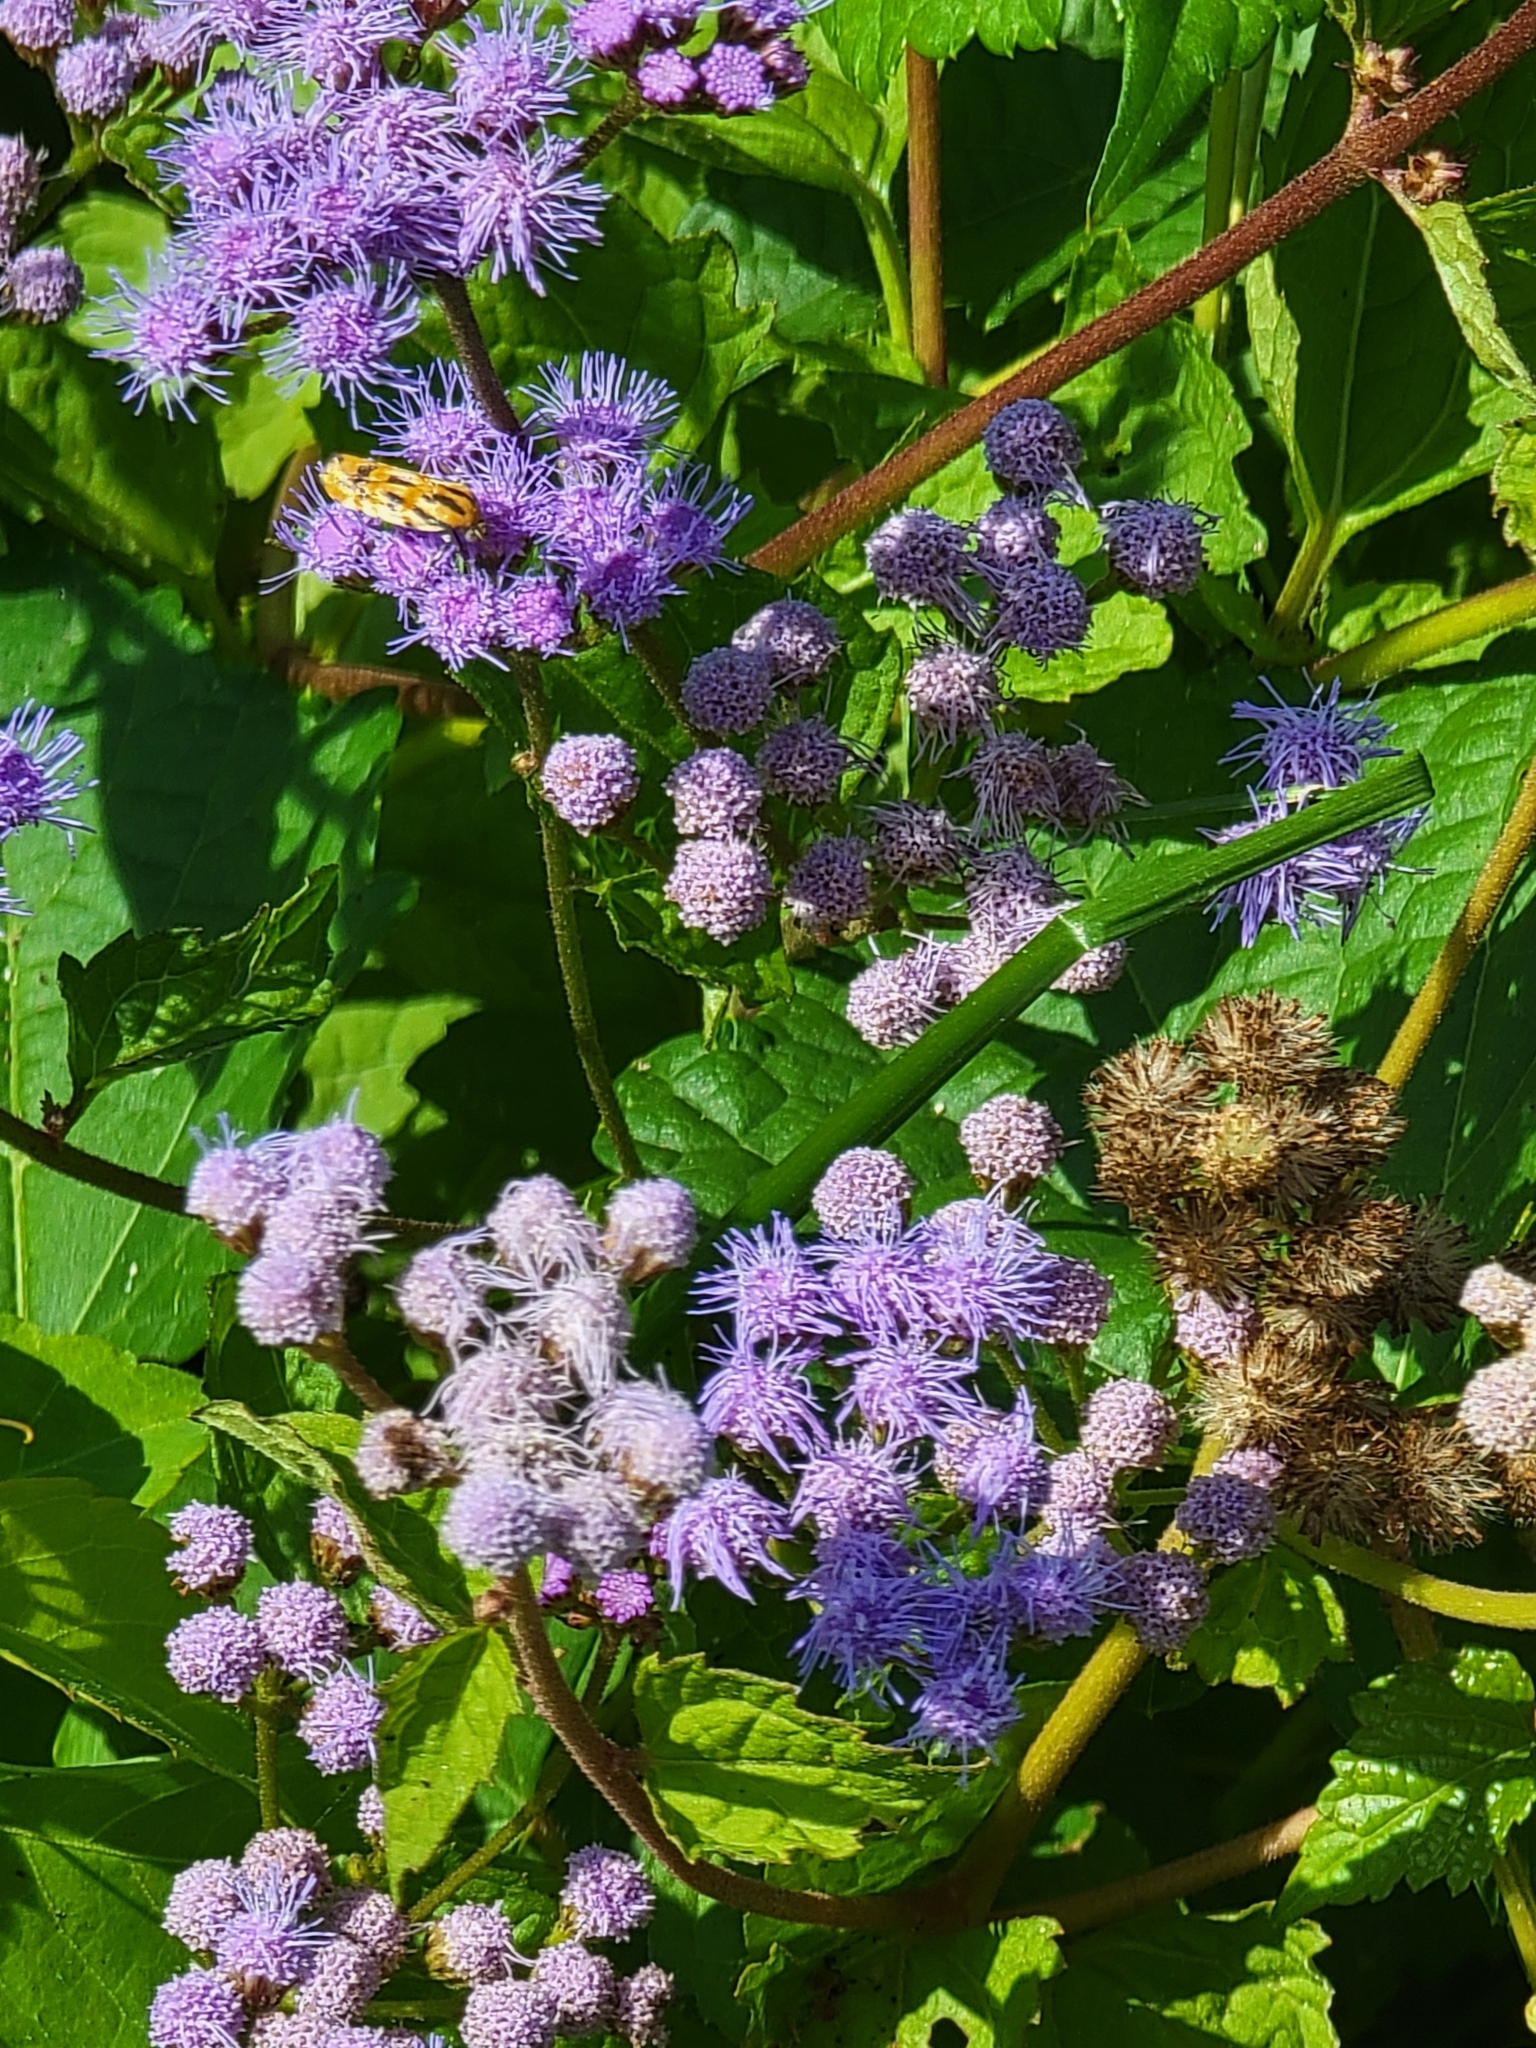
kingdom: Plantae
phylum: Tracheophyta
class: Magnoliopsida
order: Asterales
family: Asteraceae
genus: Conoclinium
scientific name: Conoclinium coelestinum
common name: Blue mistflower
